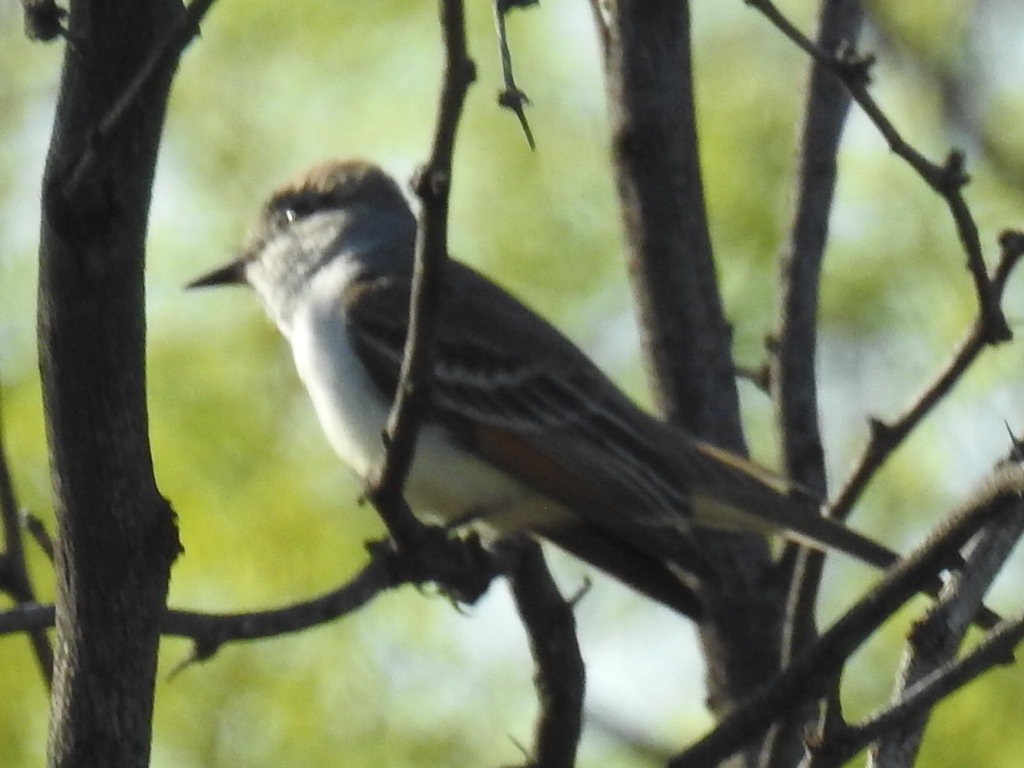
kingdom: Animalia
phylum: Chordata
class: Aves
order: Passeriformes
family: Tyrannidae
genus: Myiarchus
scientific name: Myiarchus cinerascens
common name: Ash-throated flycatcher
